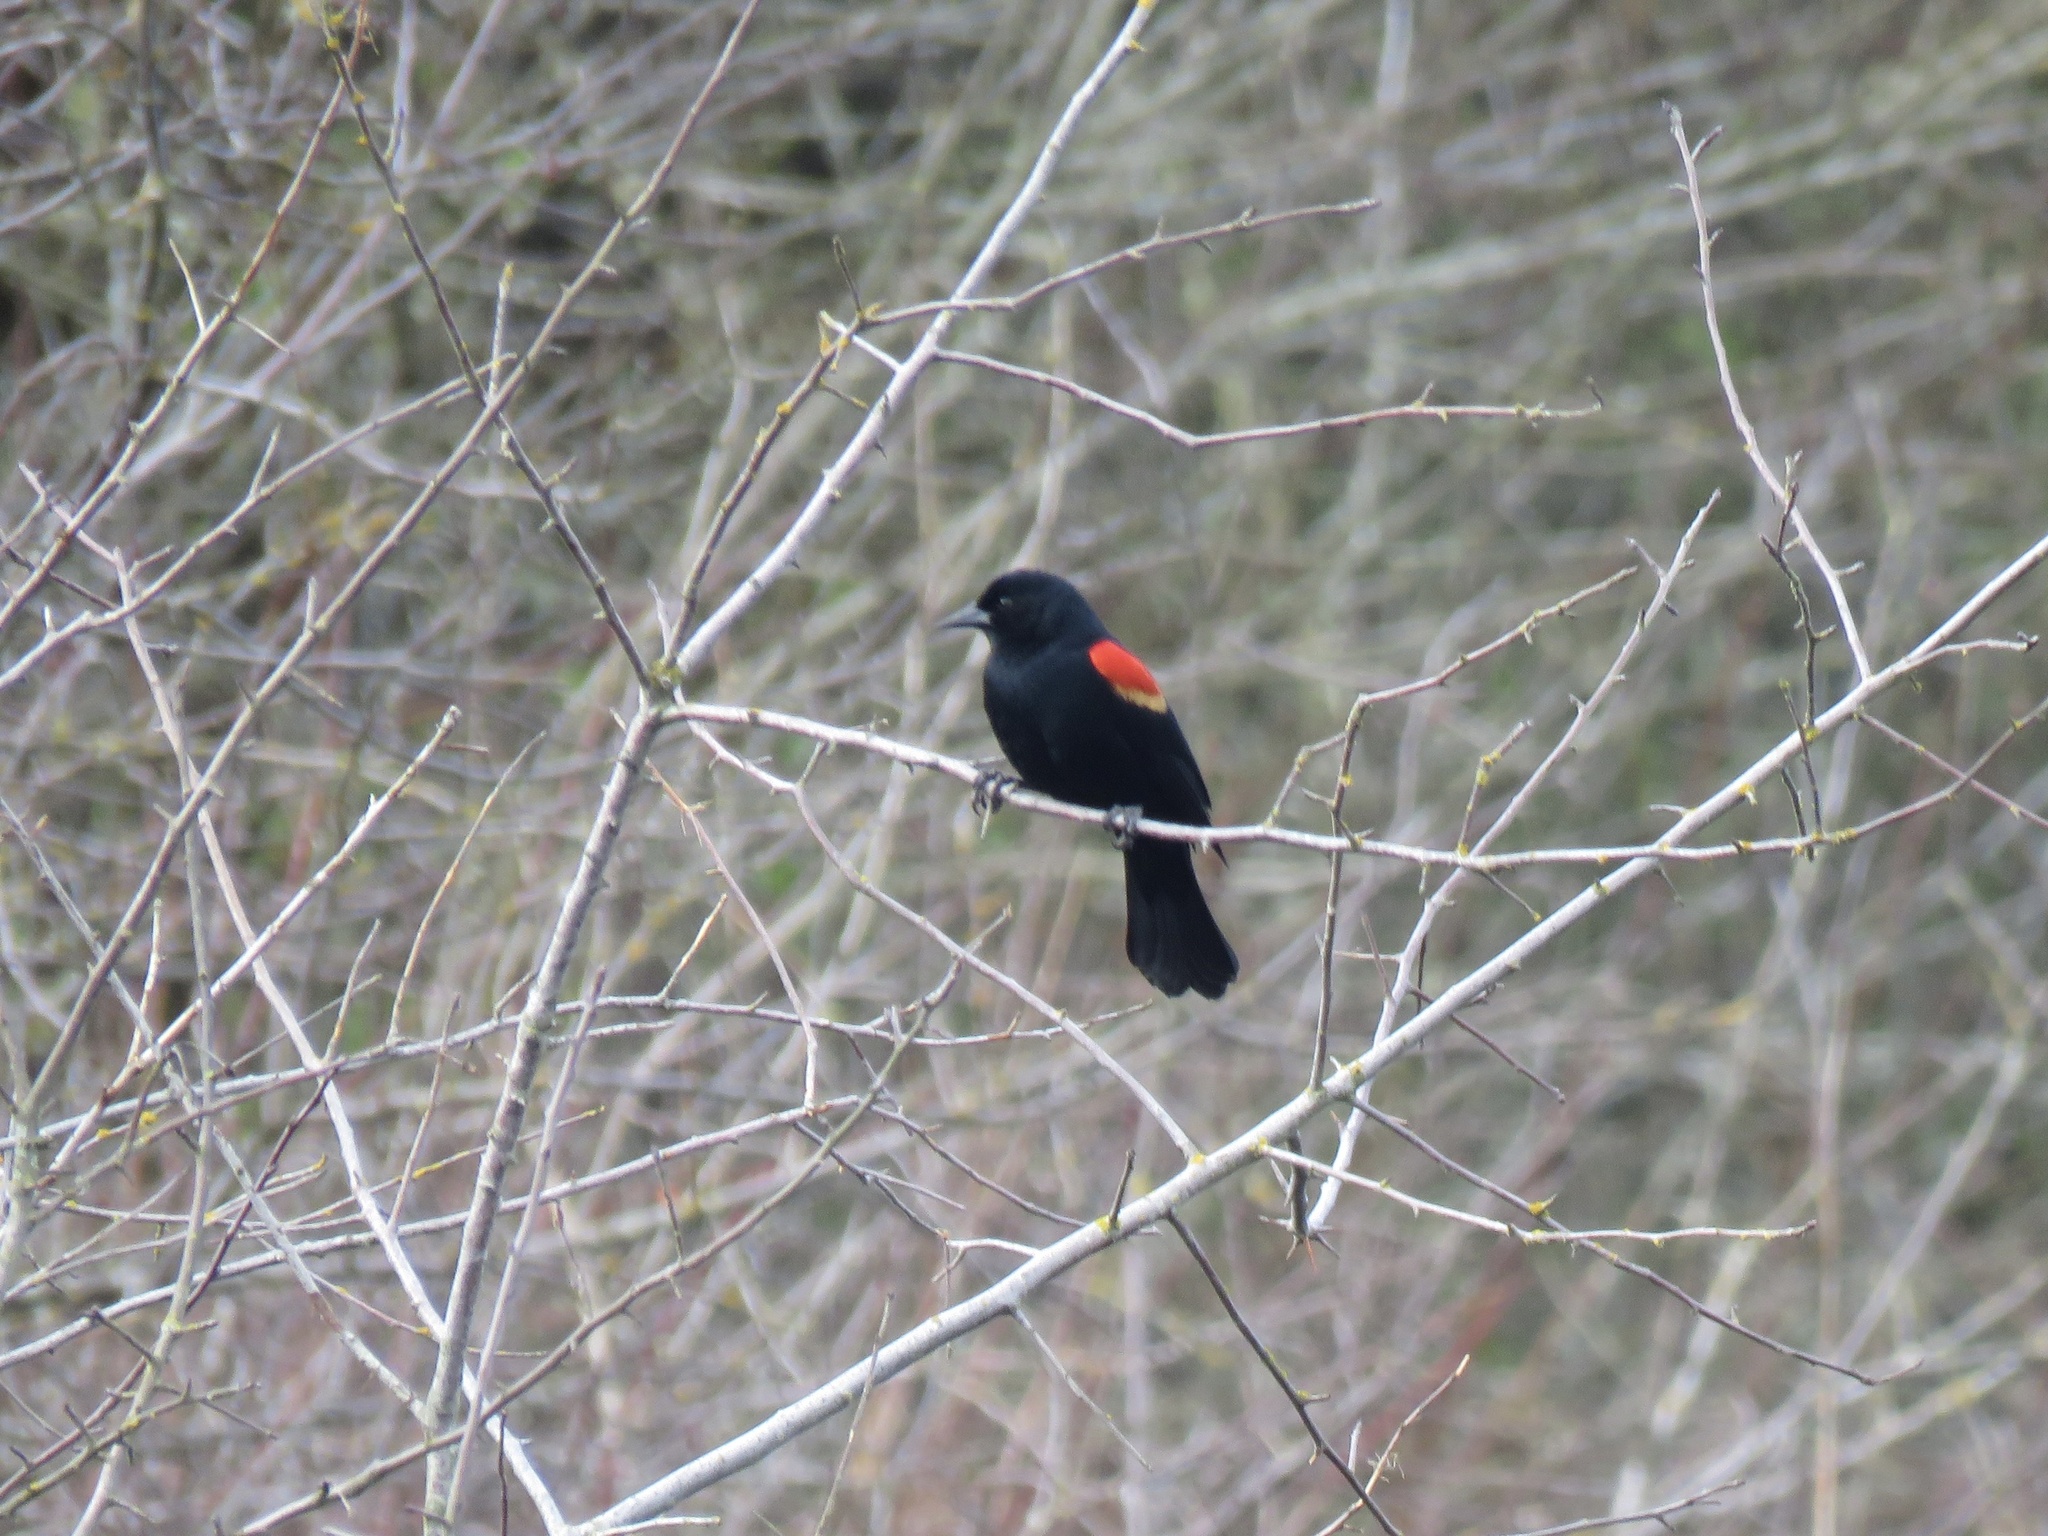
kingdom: Animalia
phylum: Chordata
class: Aves
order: Passeriformes
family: Icteridae
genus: Agelaius
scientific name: Agelaius phoeniceus
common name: Red-winged blackbird
